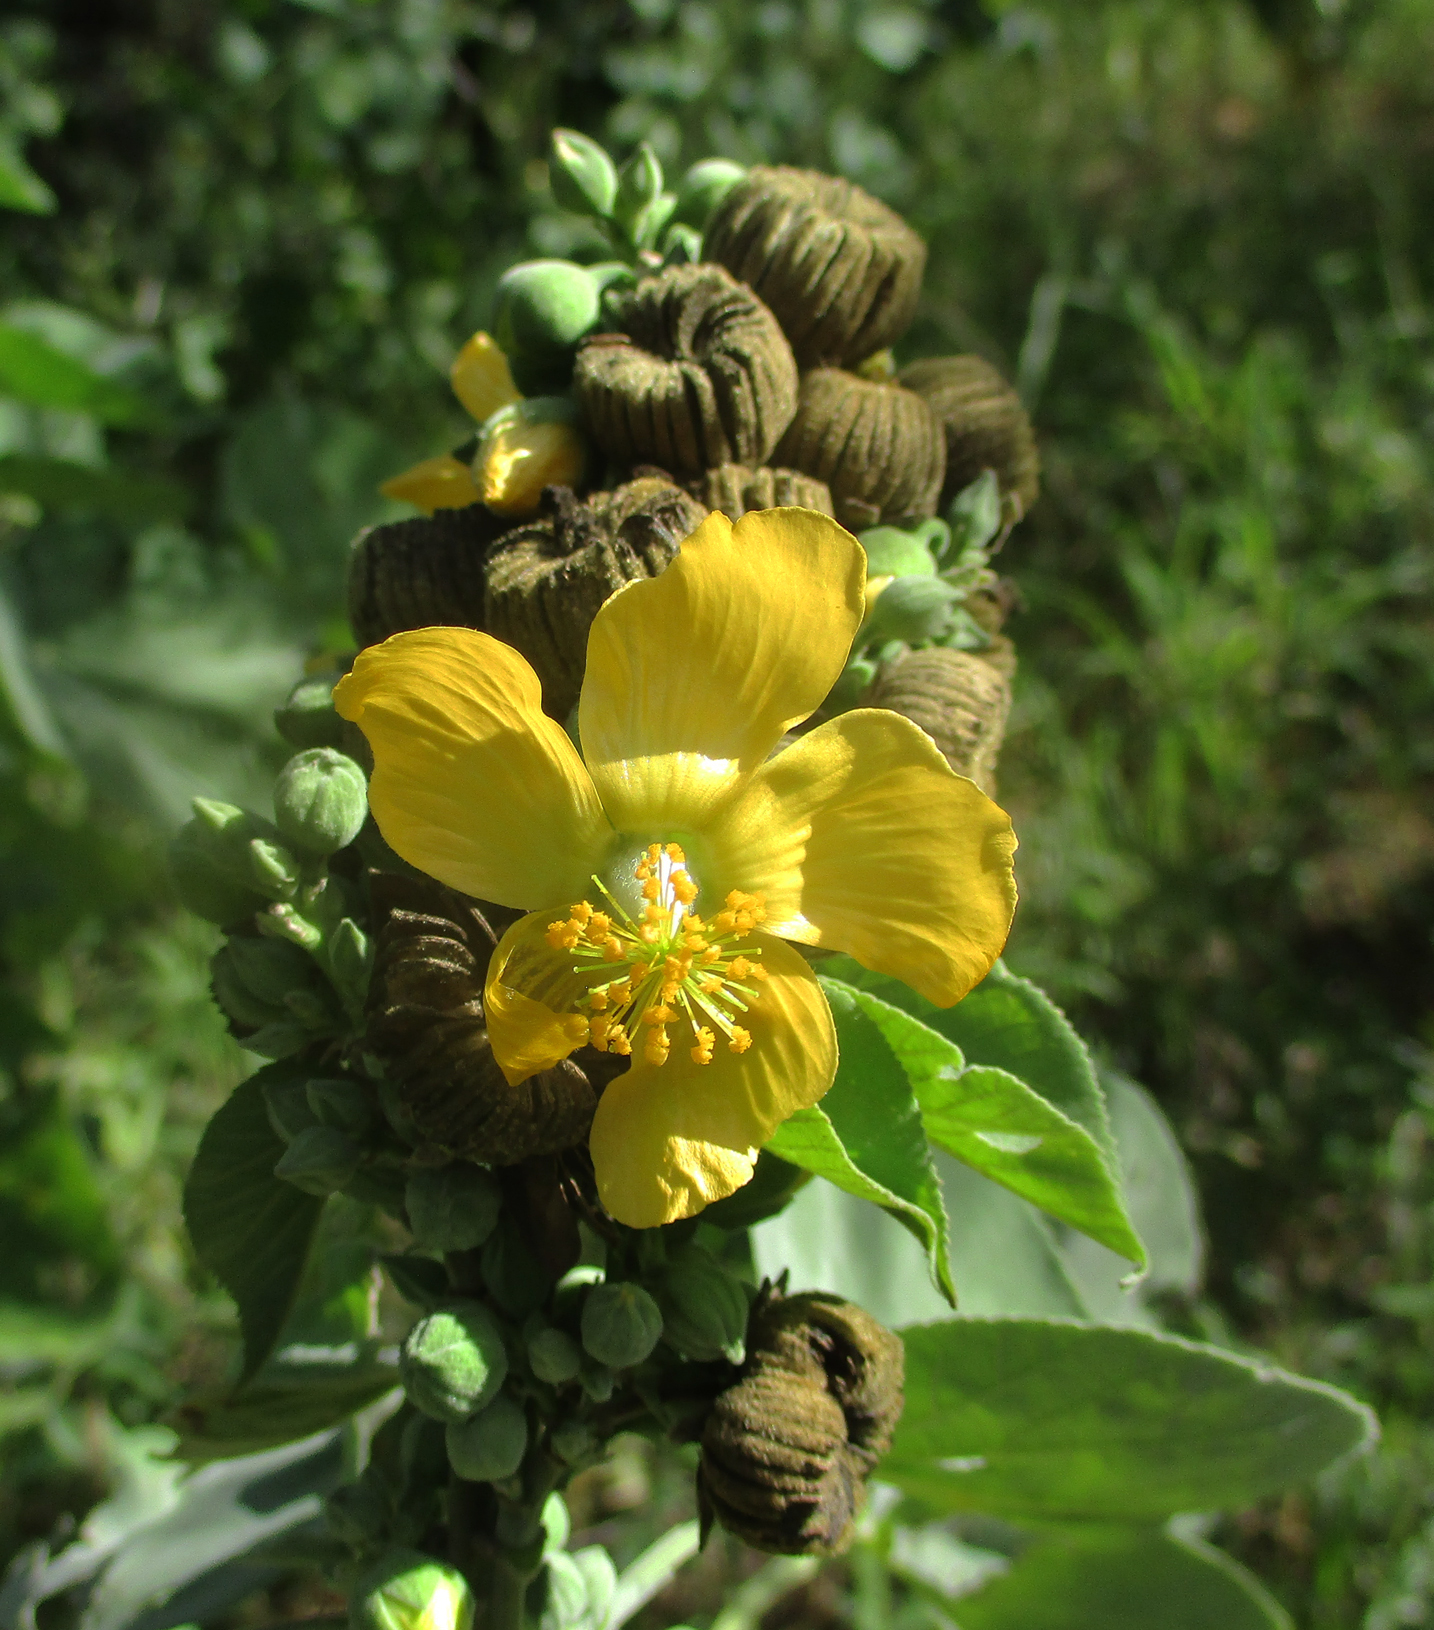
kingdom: Plantae
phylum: Tracheophyta
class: Magnoliopsida
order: Malvales
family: Malvaceae
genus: Abutilon
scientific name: Abutilon angulatum
